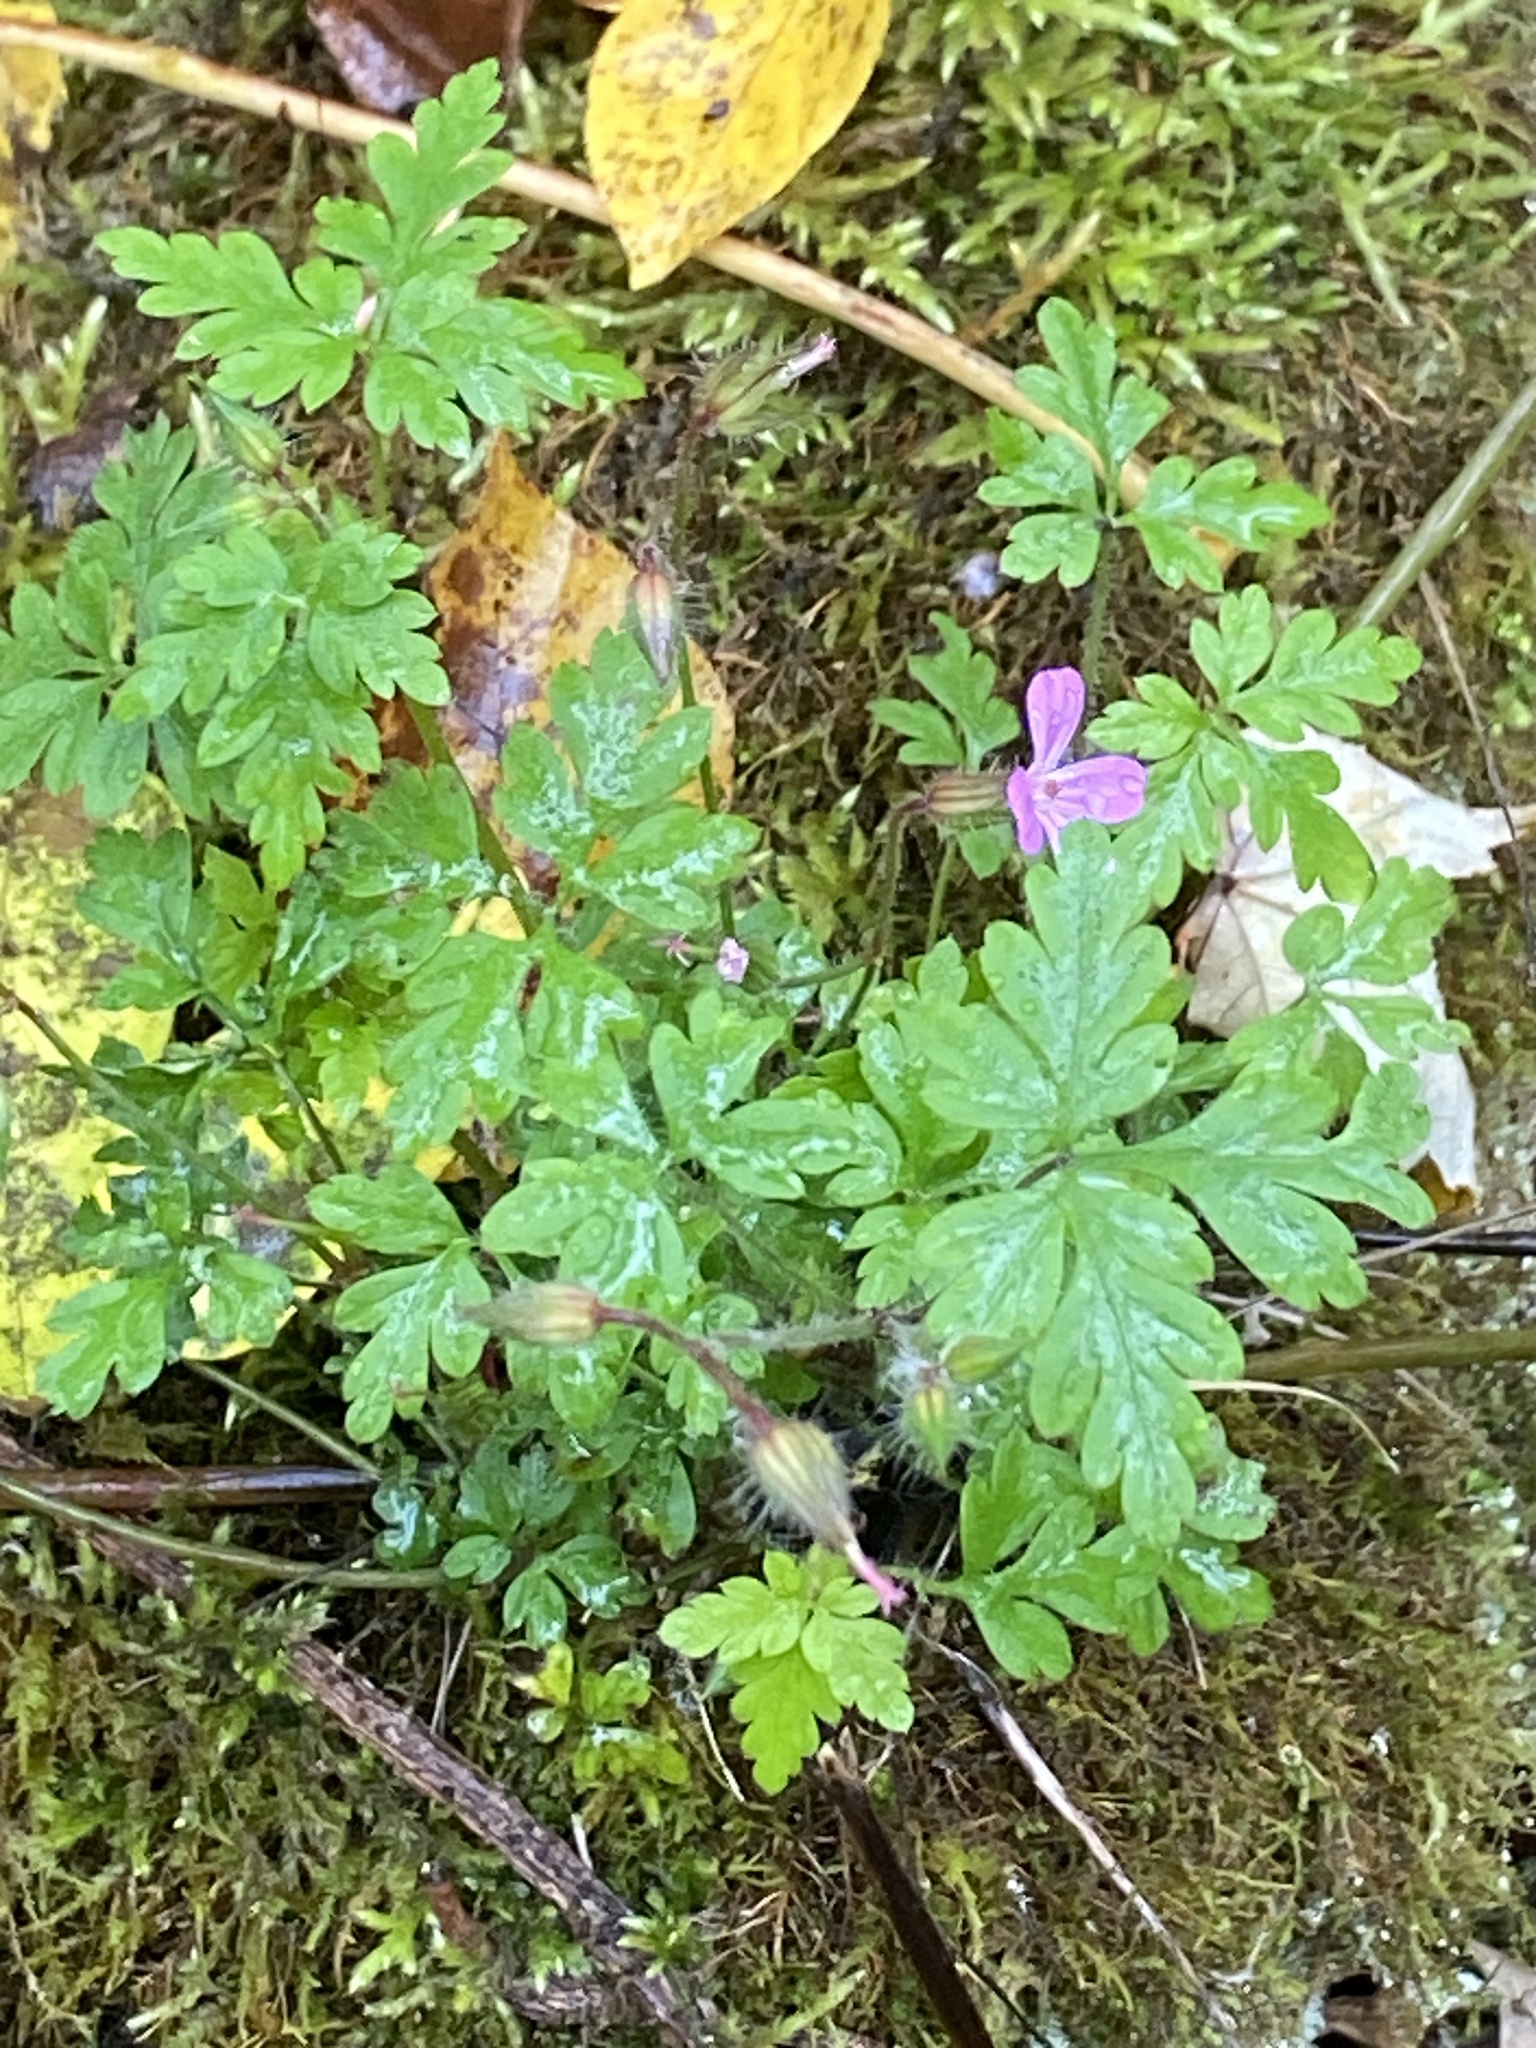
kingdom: Plantae
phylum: Tracheophyta
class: Magnoliopsida
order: Geraniales
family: Geraniaceae
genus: Geranium
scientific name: Geranium robertianum
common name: Herb-robert
